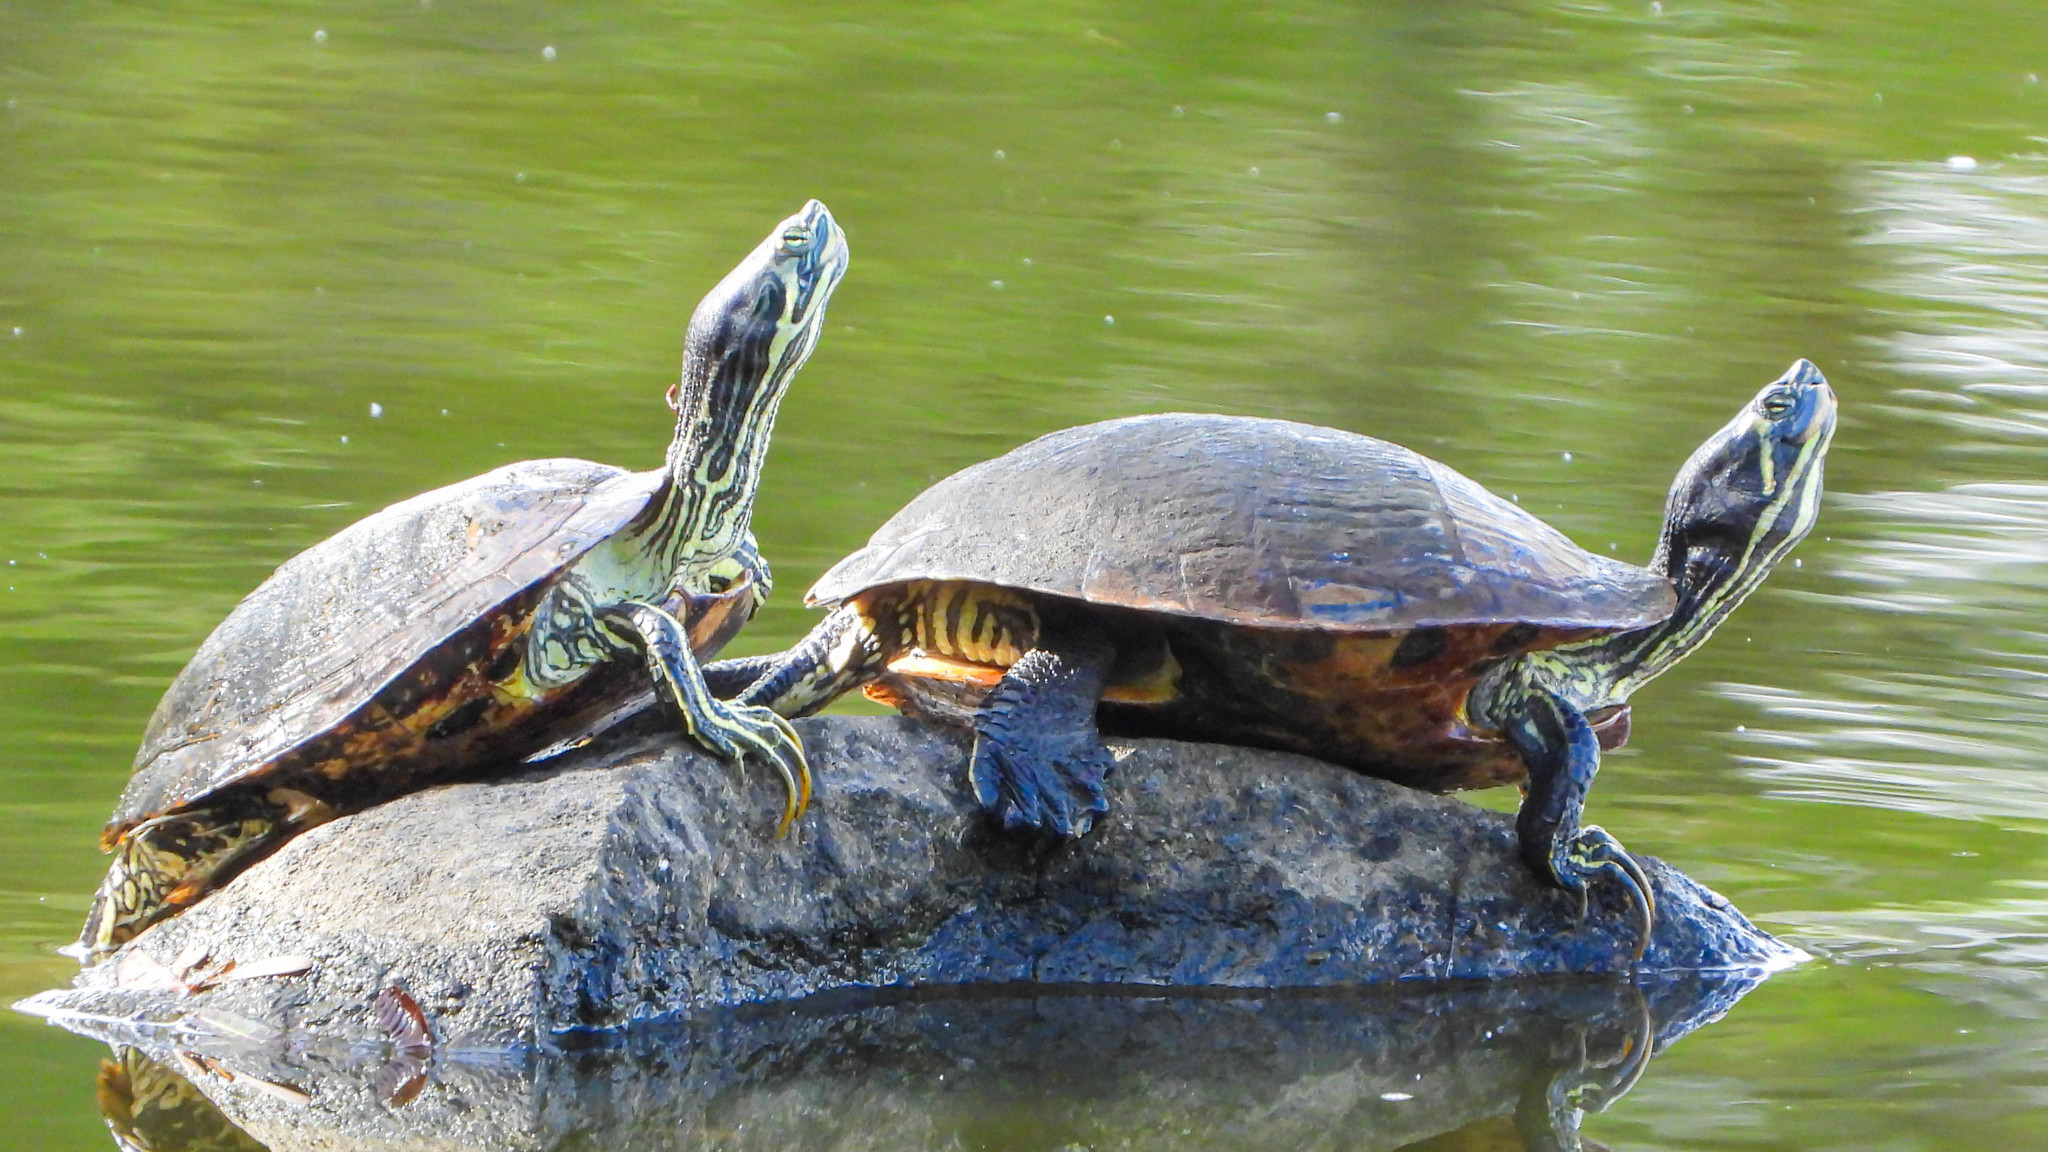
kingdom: Animalia
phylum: Chordata
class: Testudines
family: Emydidae
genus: Trachemys
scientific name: Trachemys scripta
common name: Slider
